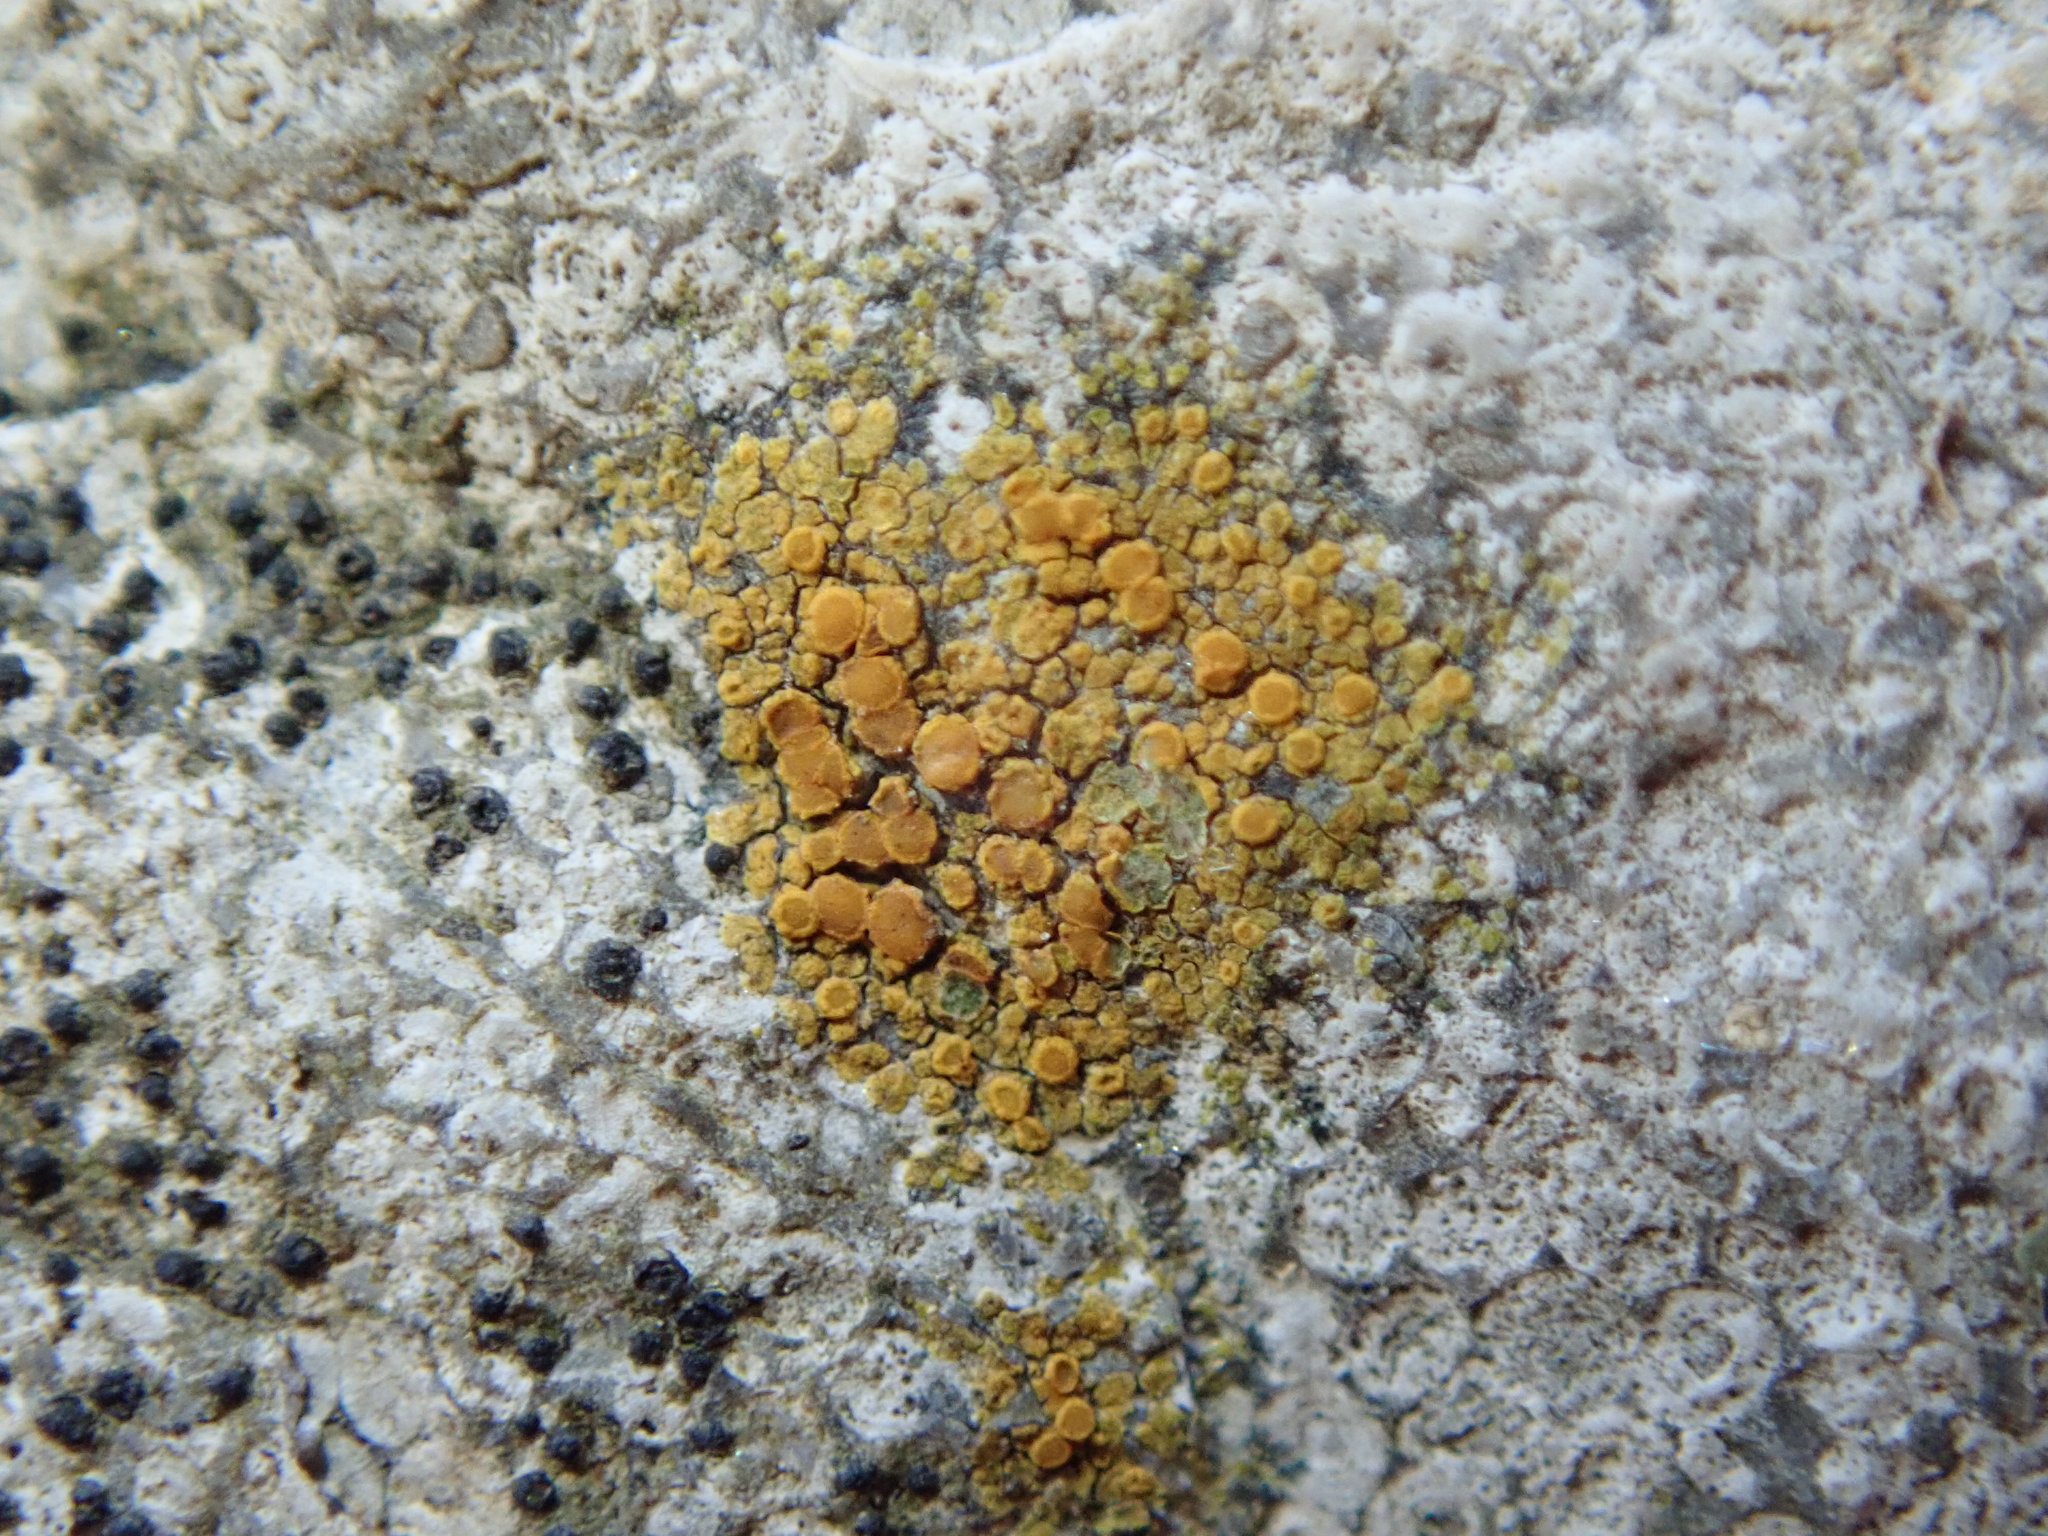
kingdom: Fungi
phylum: Ascomycota
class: Lecanoromycetes
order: Teloschistales
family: Teloschistaceae
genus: Xanthocarpia
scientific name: Xanthocarpia feracissima
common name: Sidewalk firedot
